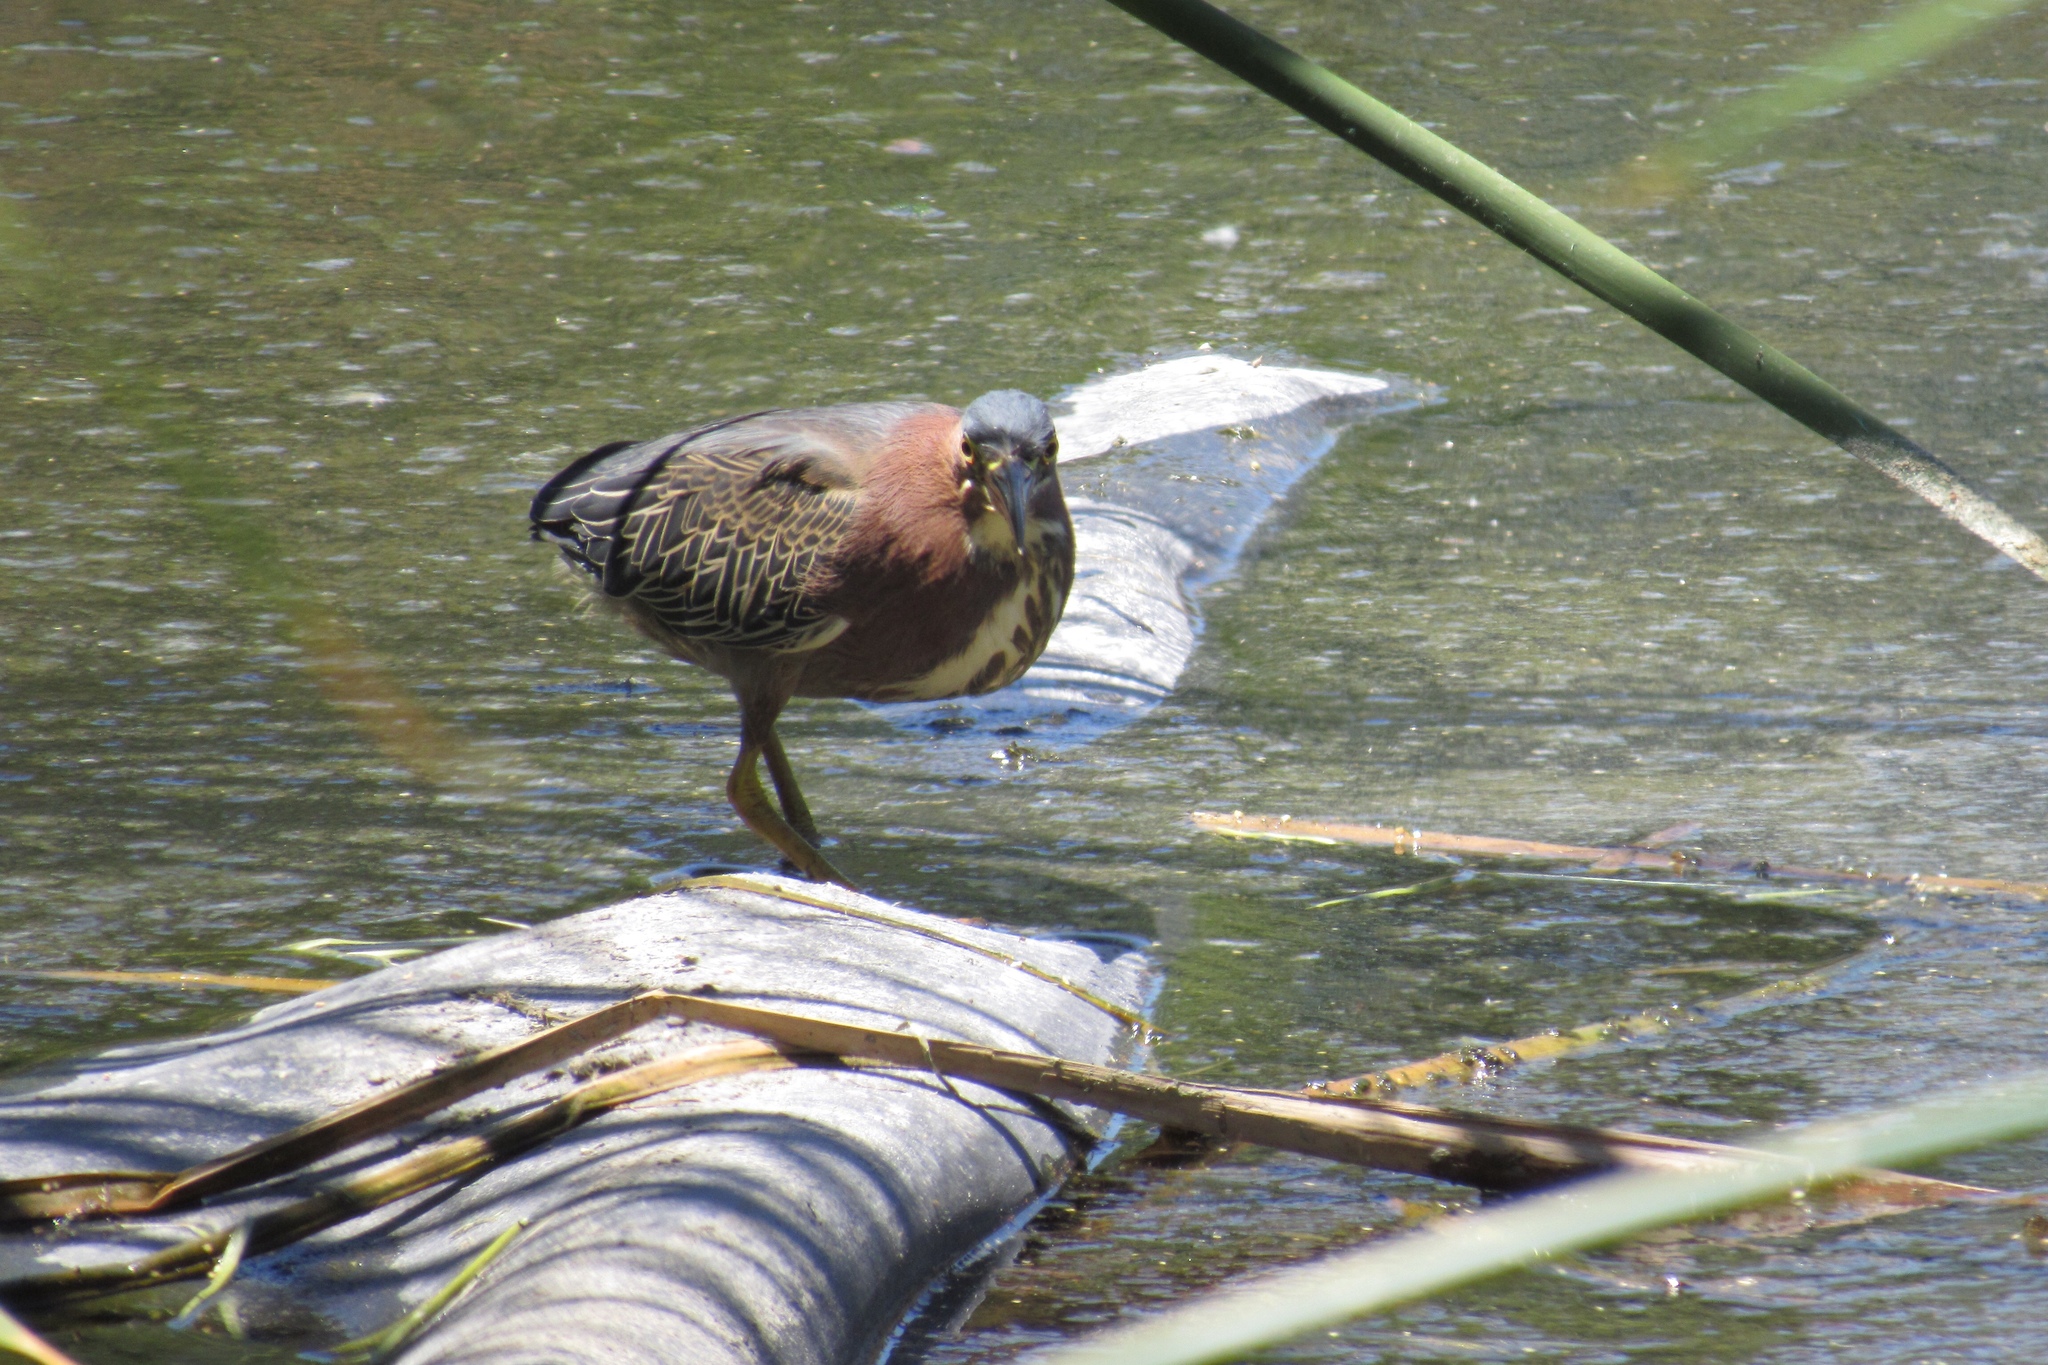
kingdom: Animalia
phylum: Chordata
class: Aves
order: Pelecaniformes
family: Ardeidae
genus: Butorides
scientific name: Butorides virescens
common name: Green heron
